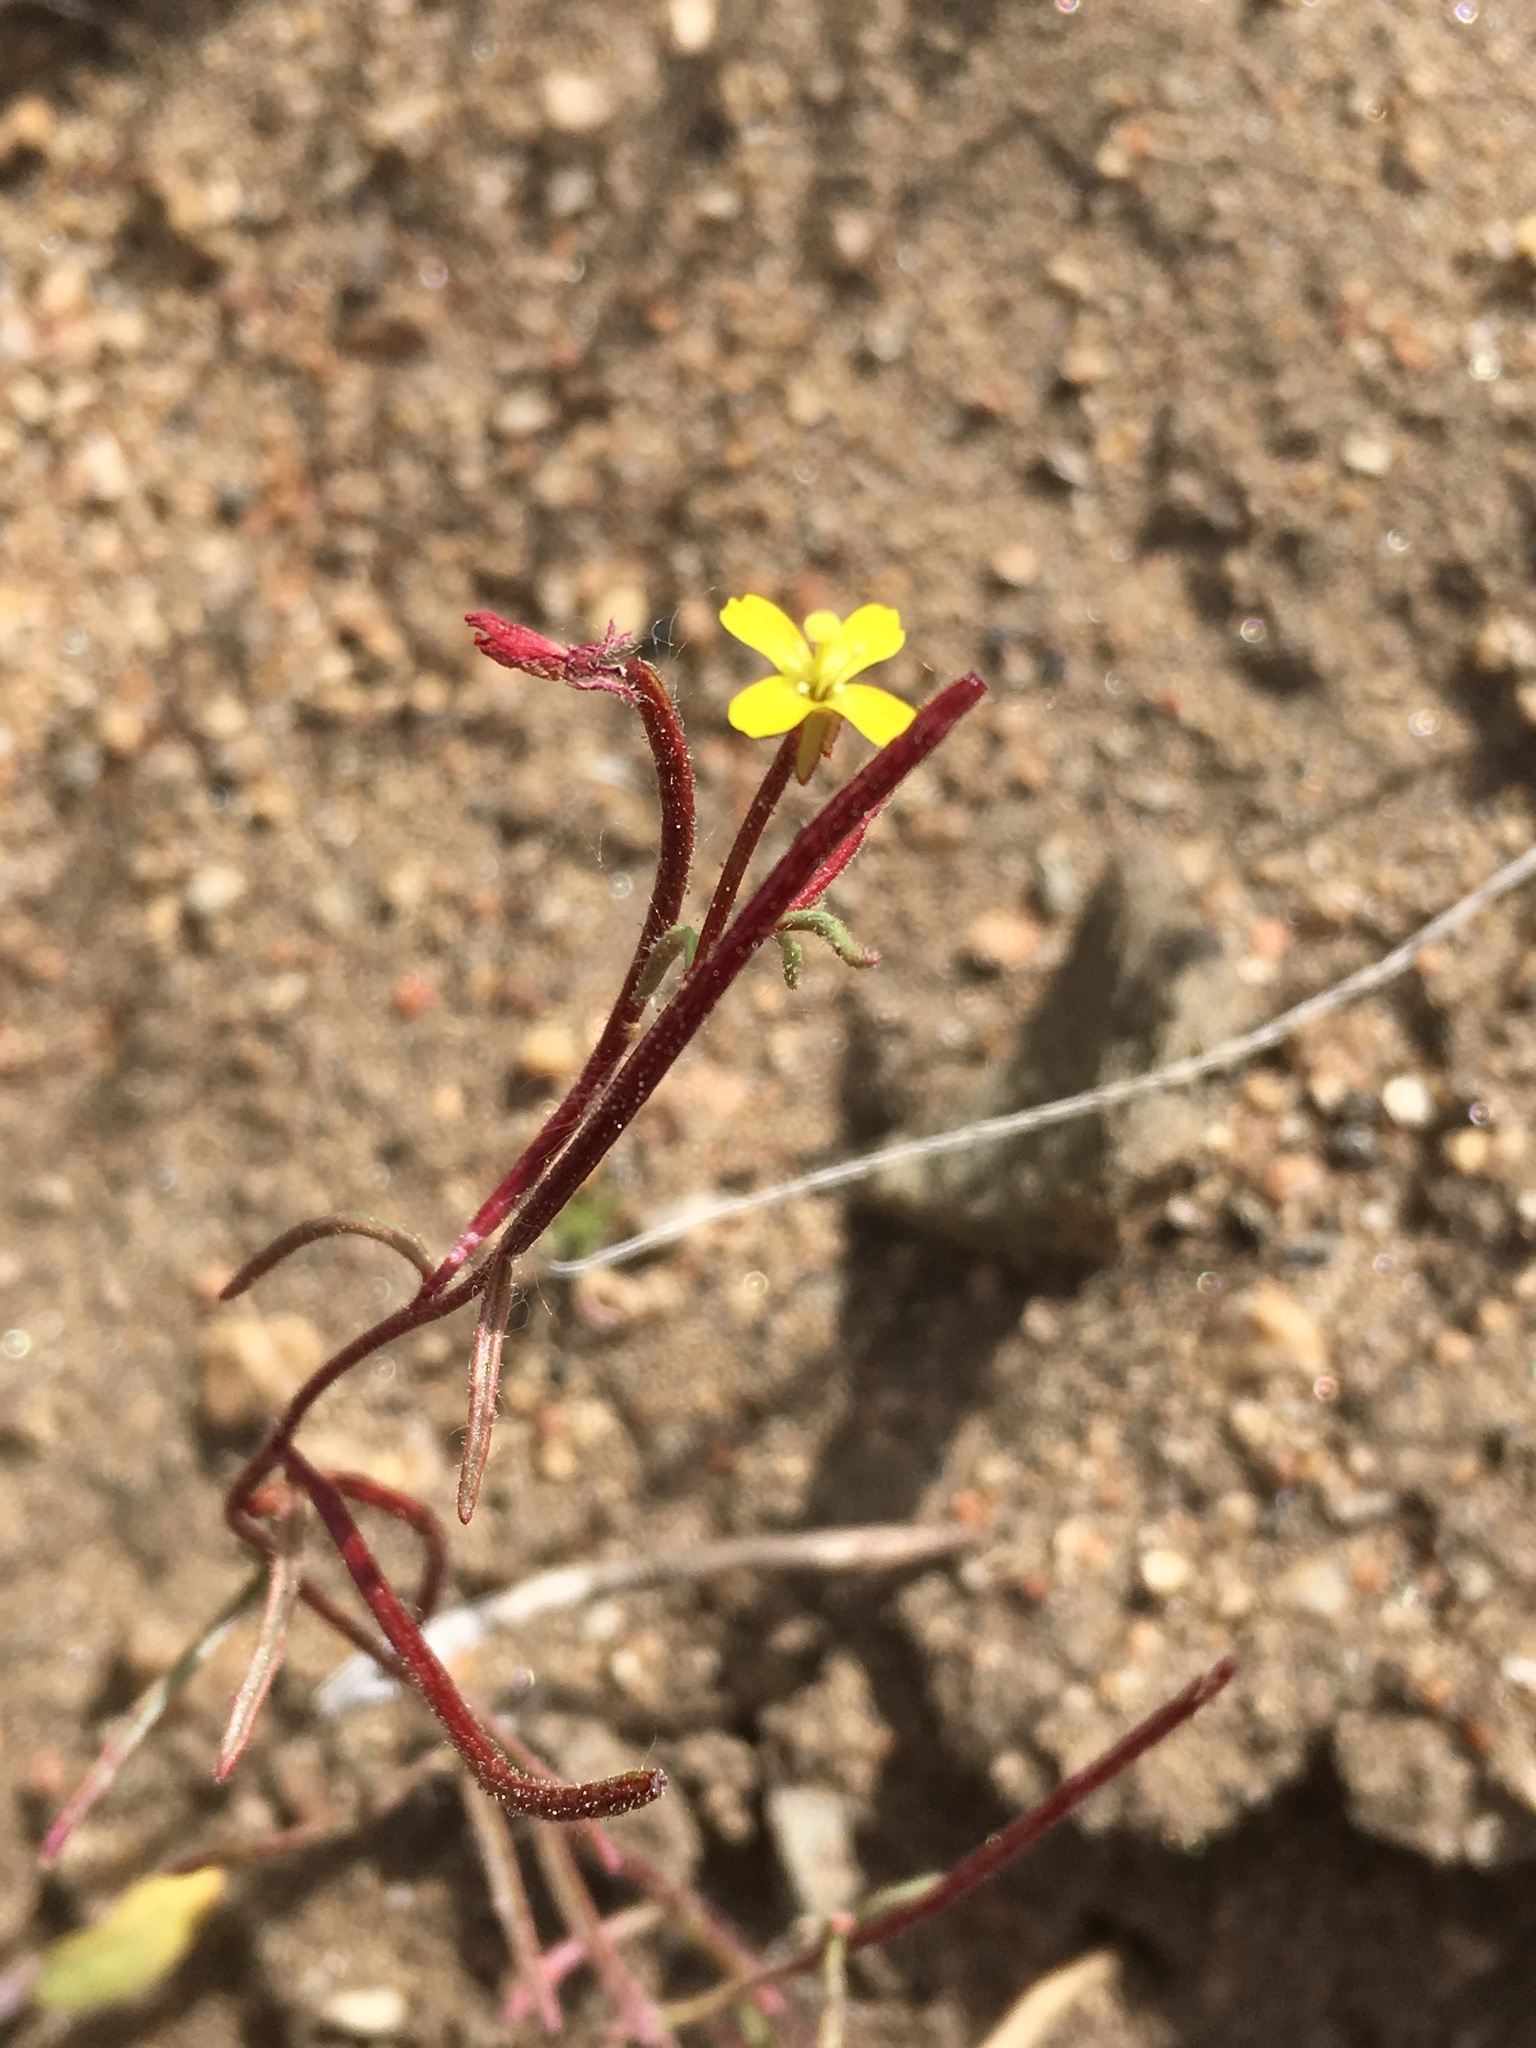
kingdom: Plantae
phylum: Tracheophyta
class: Magnoliopsida
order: Myrtales
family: Onagraceae
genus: Camissonia
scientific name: Camissonia pusilla
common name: Obscure camissonia
